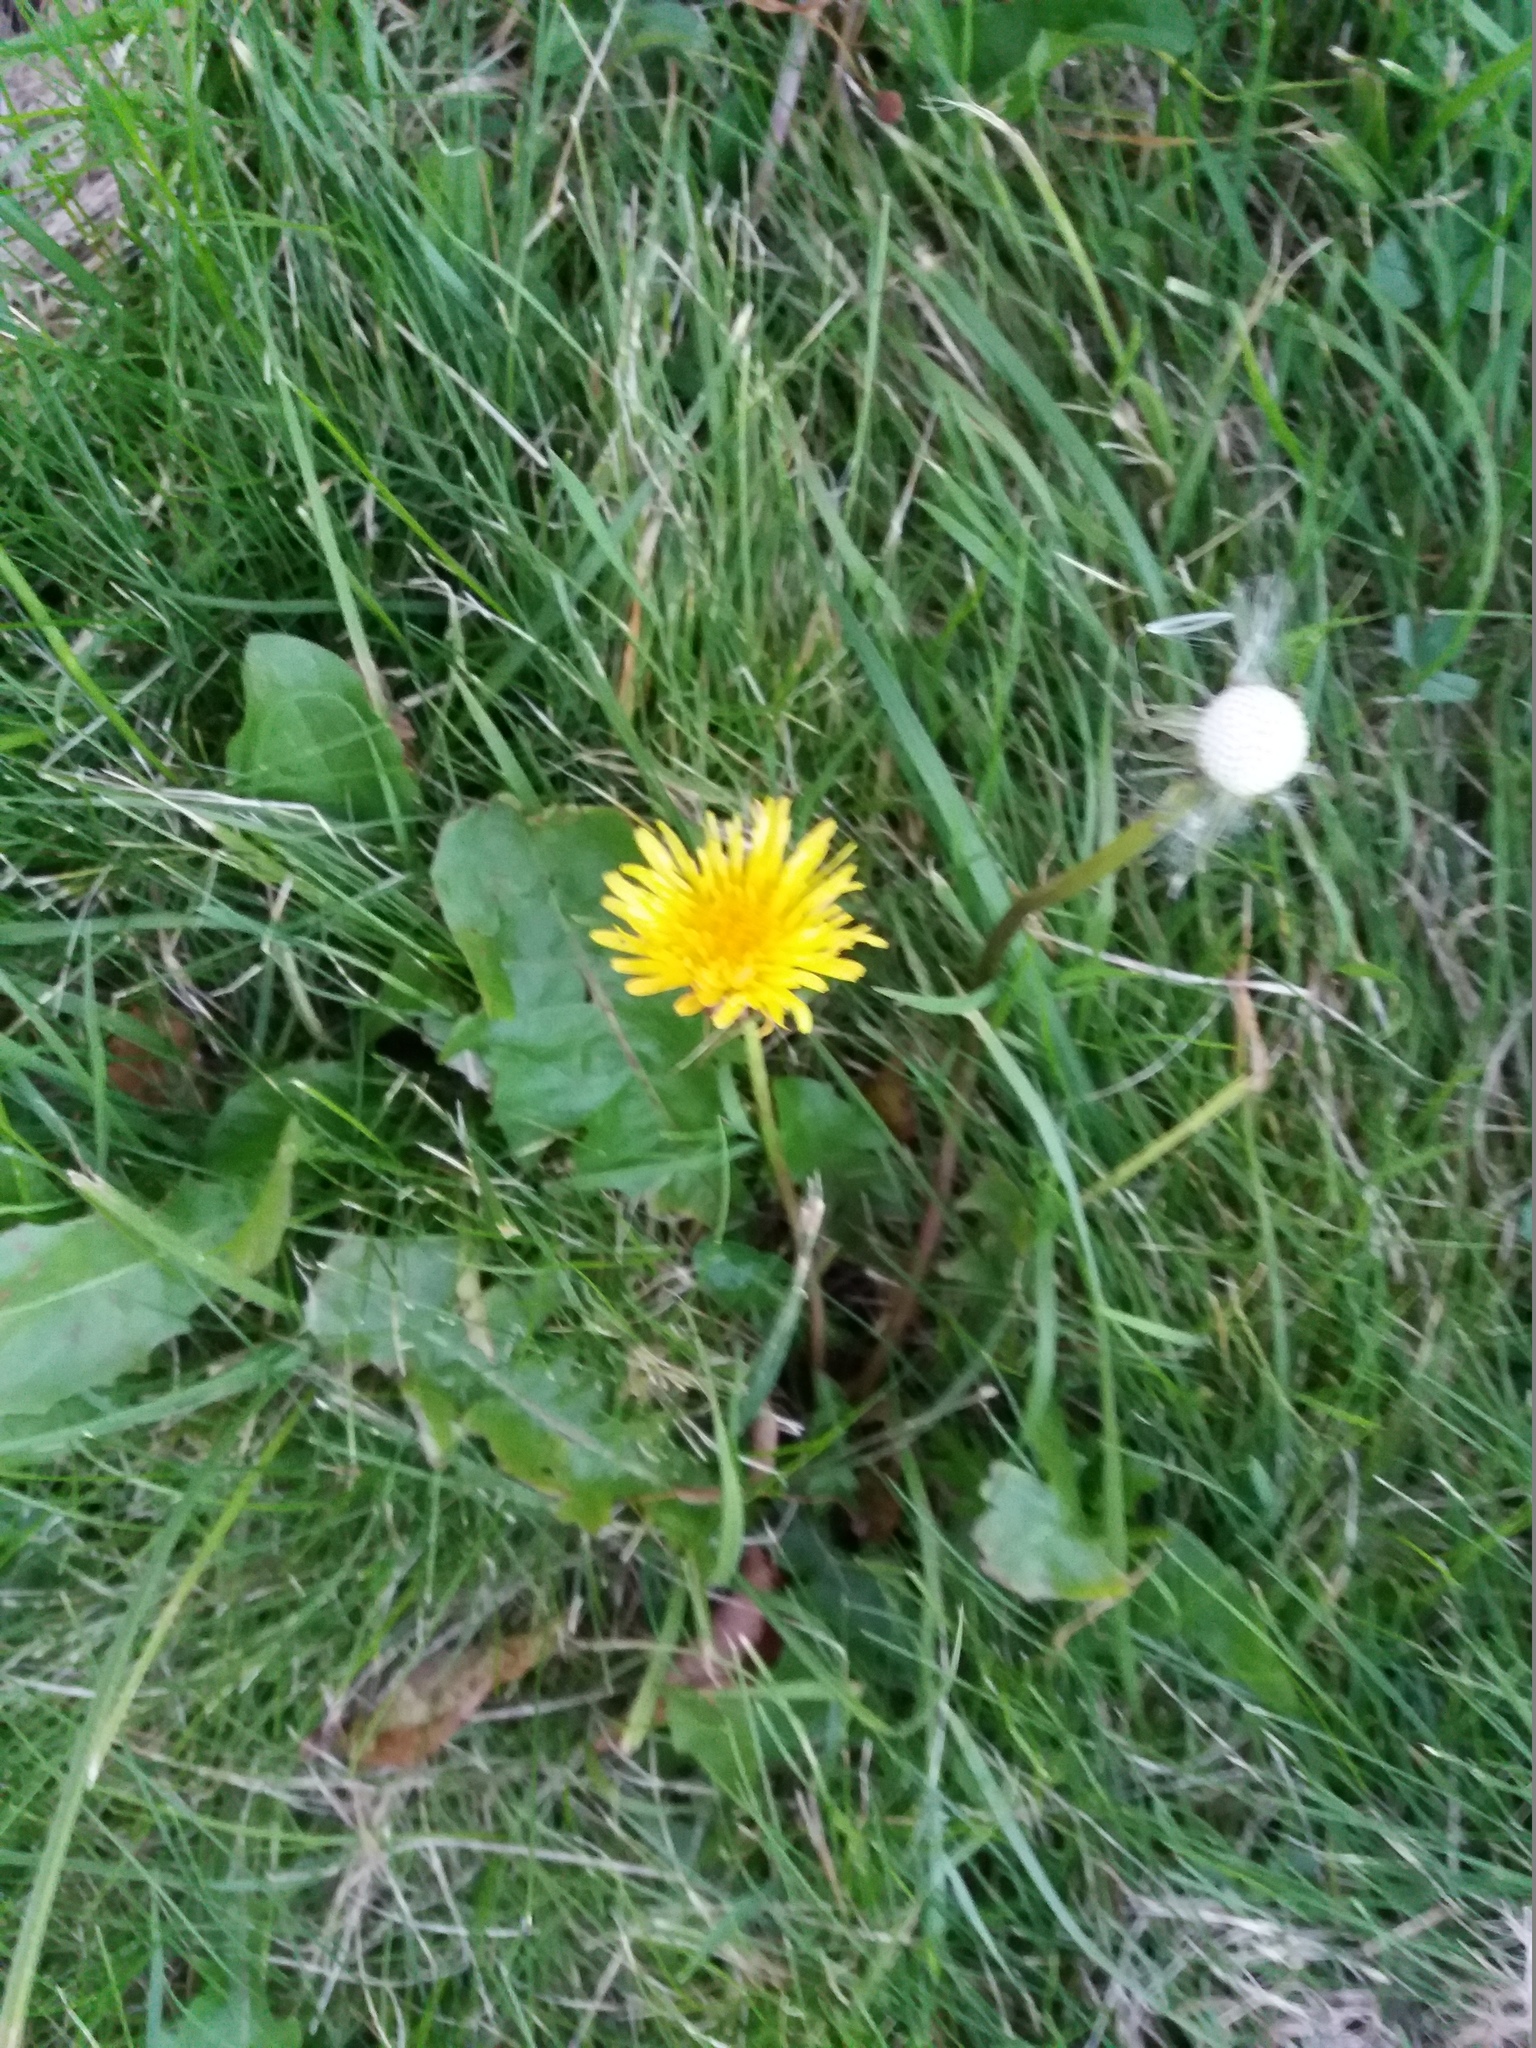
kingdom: Plantae
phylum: Tracheophyta
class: Magnoliopsida
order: Asterales
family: Asteraceae
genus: Taraxacum
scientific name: Taraxacum officinale
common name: Common dandelion
